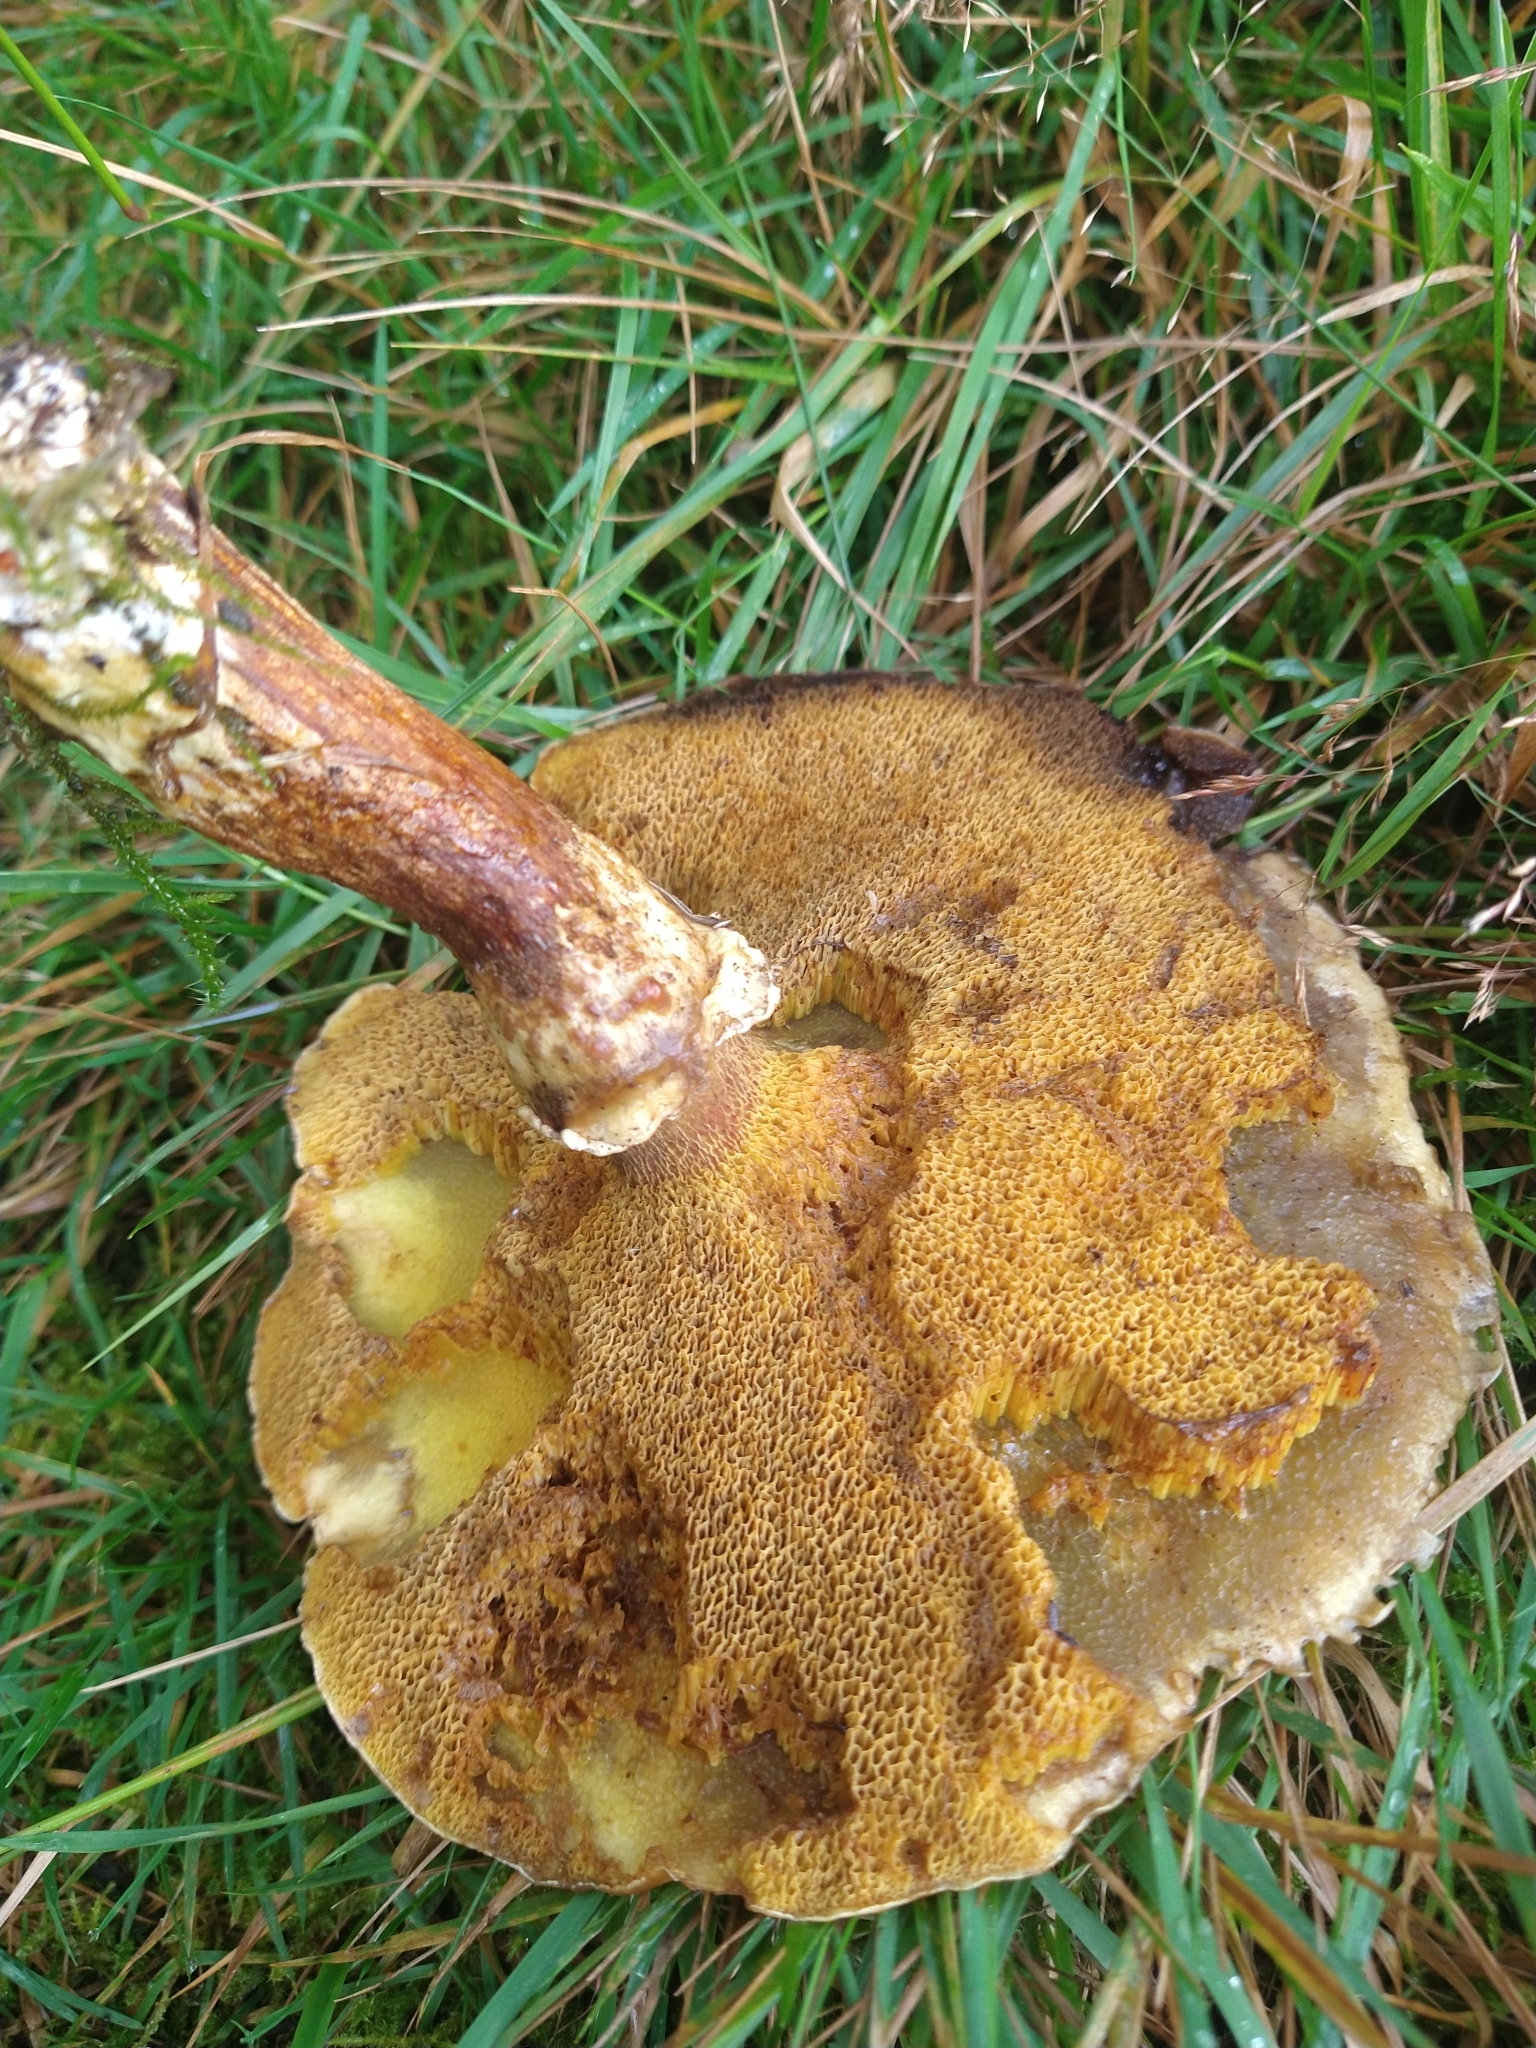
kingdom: Fungi
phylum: Basidiomycota
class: Agaricomycetes
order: Boletales
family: Suillaceae
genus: Suillus
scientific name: Suillus grevillei
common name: Larch bolete
